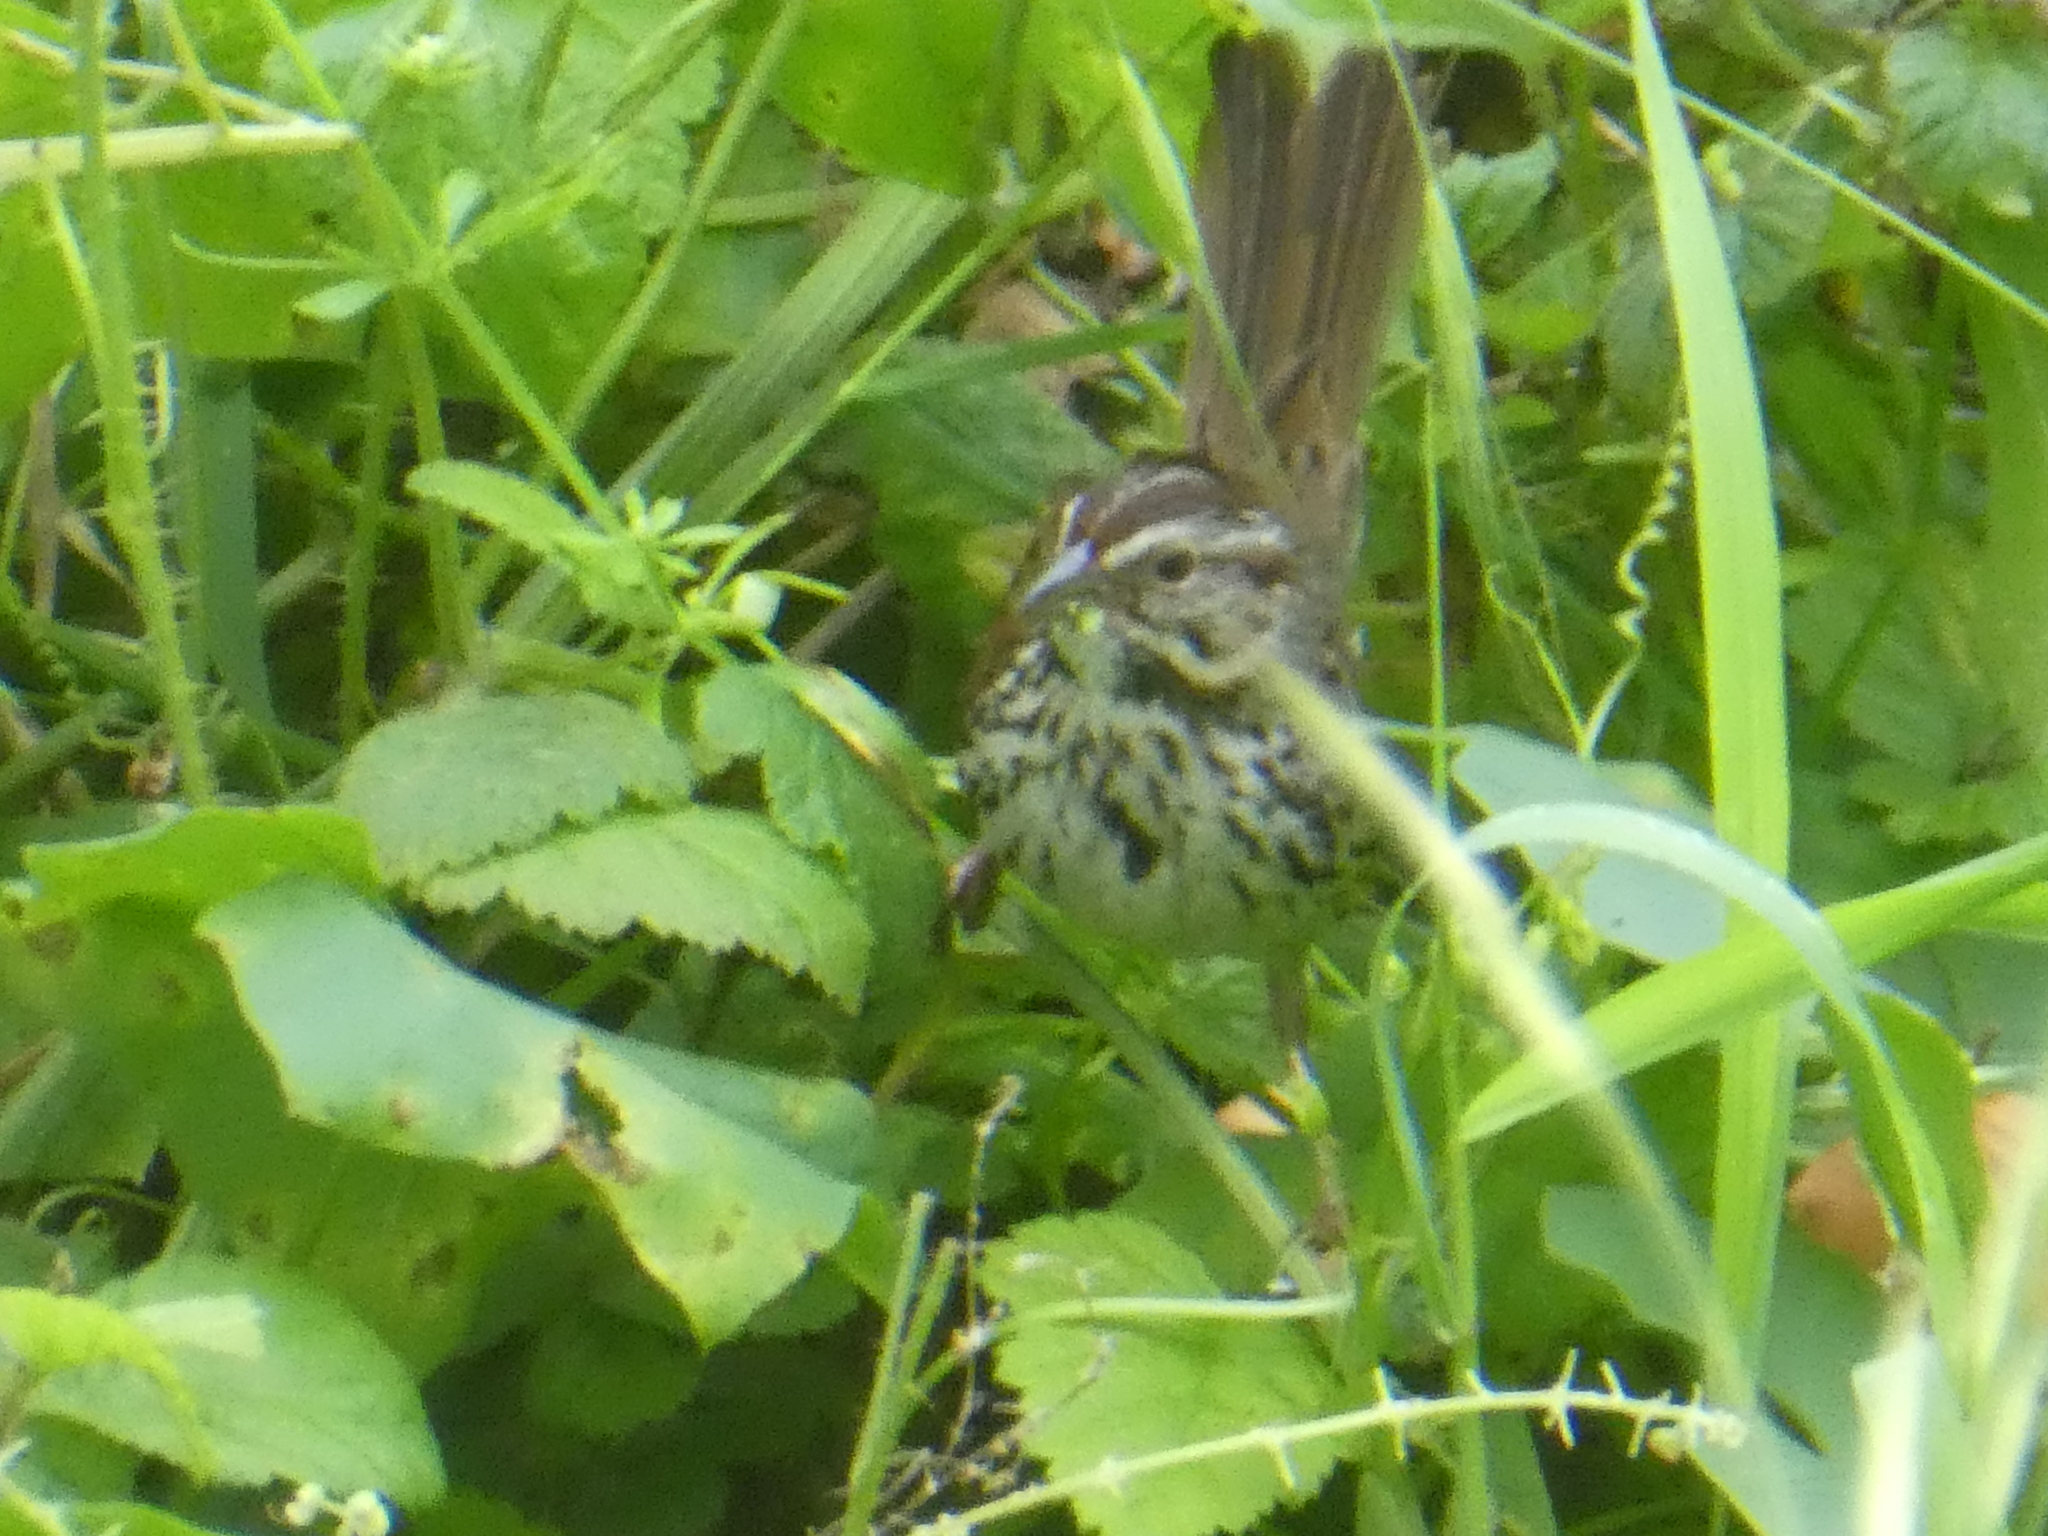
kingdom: Animalia
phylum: Chordata
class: Aves
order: Passeriformes
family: Passerellidae
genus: Melospiza
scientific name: Melospiza melodia
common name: Song sparrow
